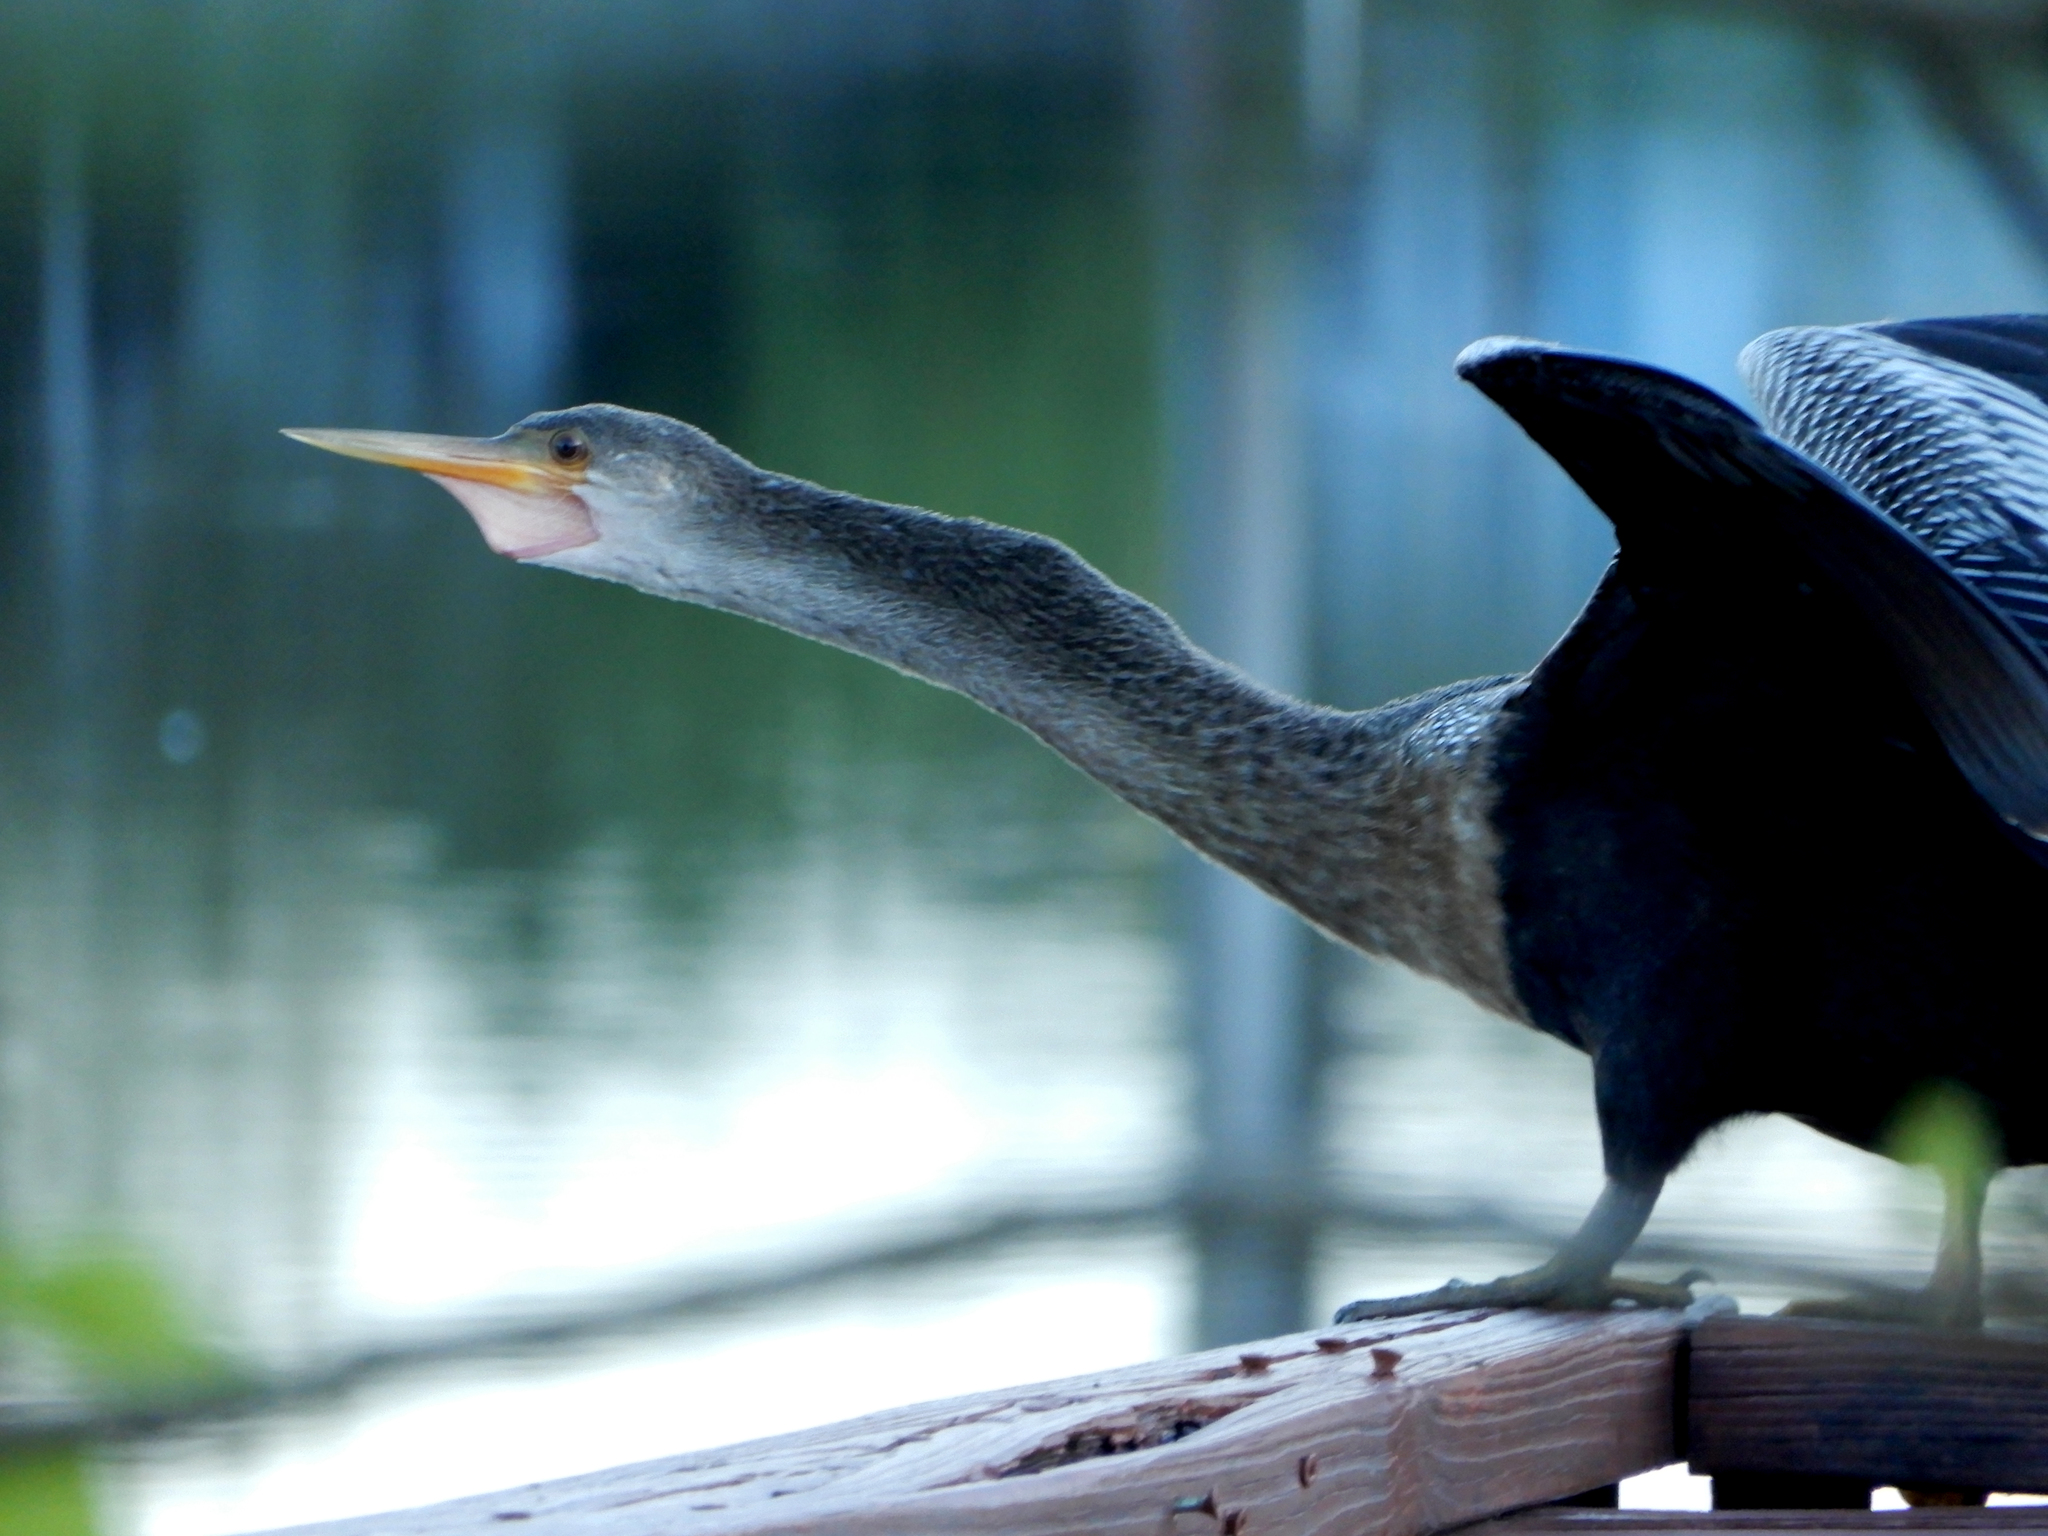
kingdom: Animalia
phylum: Chordata
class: Aves
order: Suliformes
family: Anhingidae
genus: Anhinga
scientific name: Anhinga anhinga
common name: Anhinga
